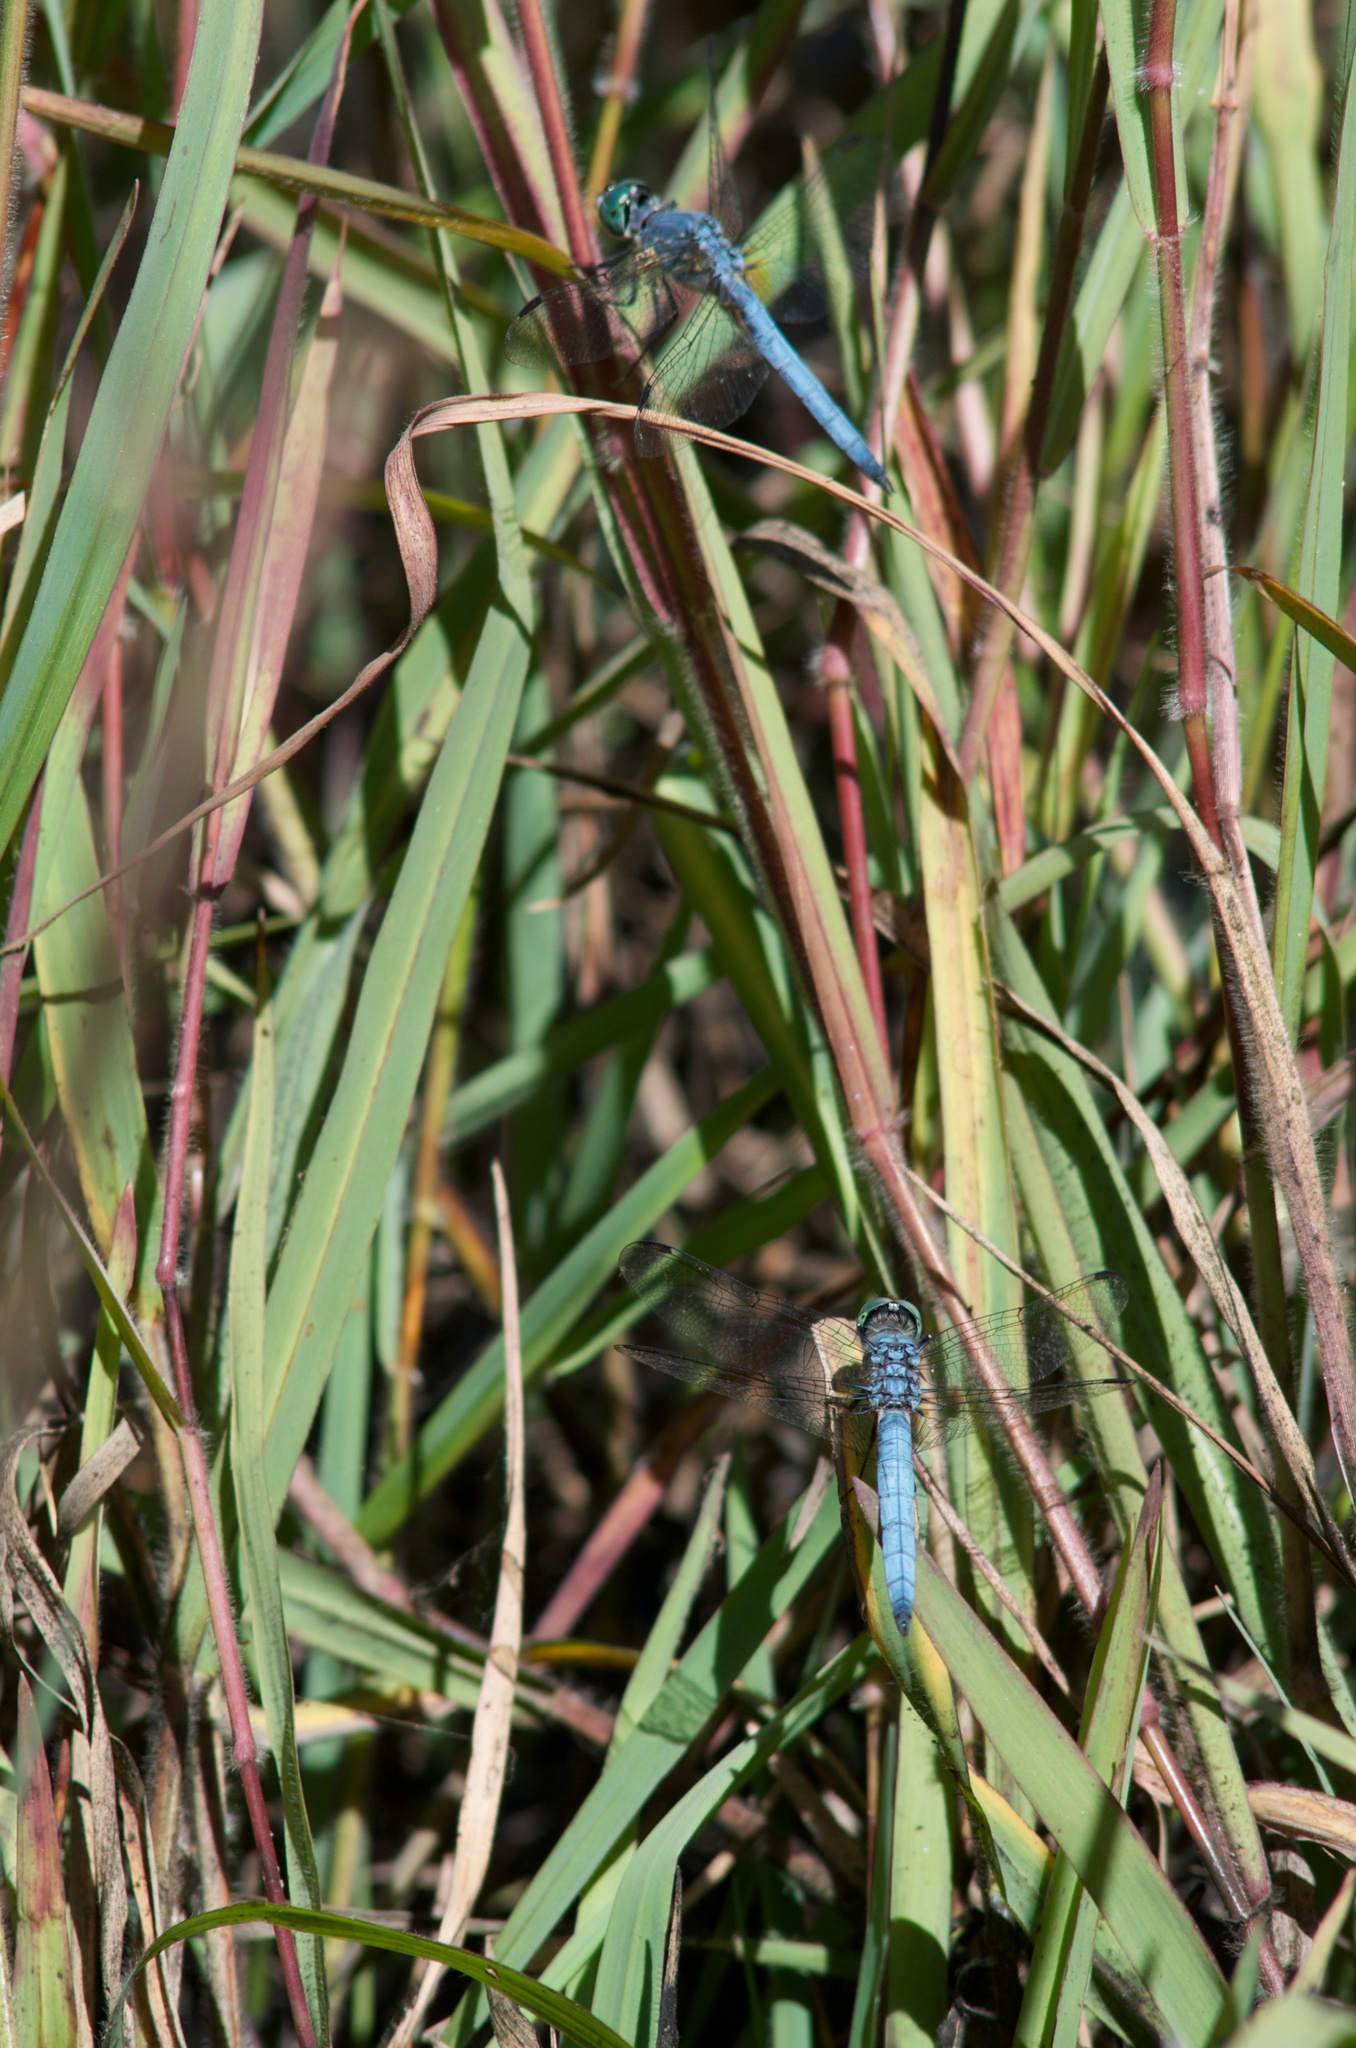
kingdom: Animalia
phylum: Arthropoda
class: Insecta
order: Odonata
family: Libellulidae
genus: Pachydiplax
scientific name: Pachydiplax longipennis
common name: Blue dasher
